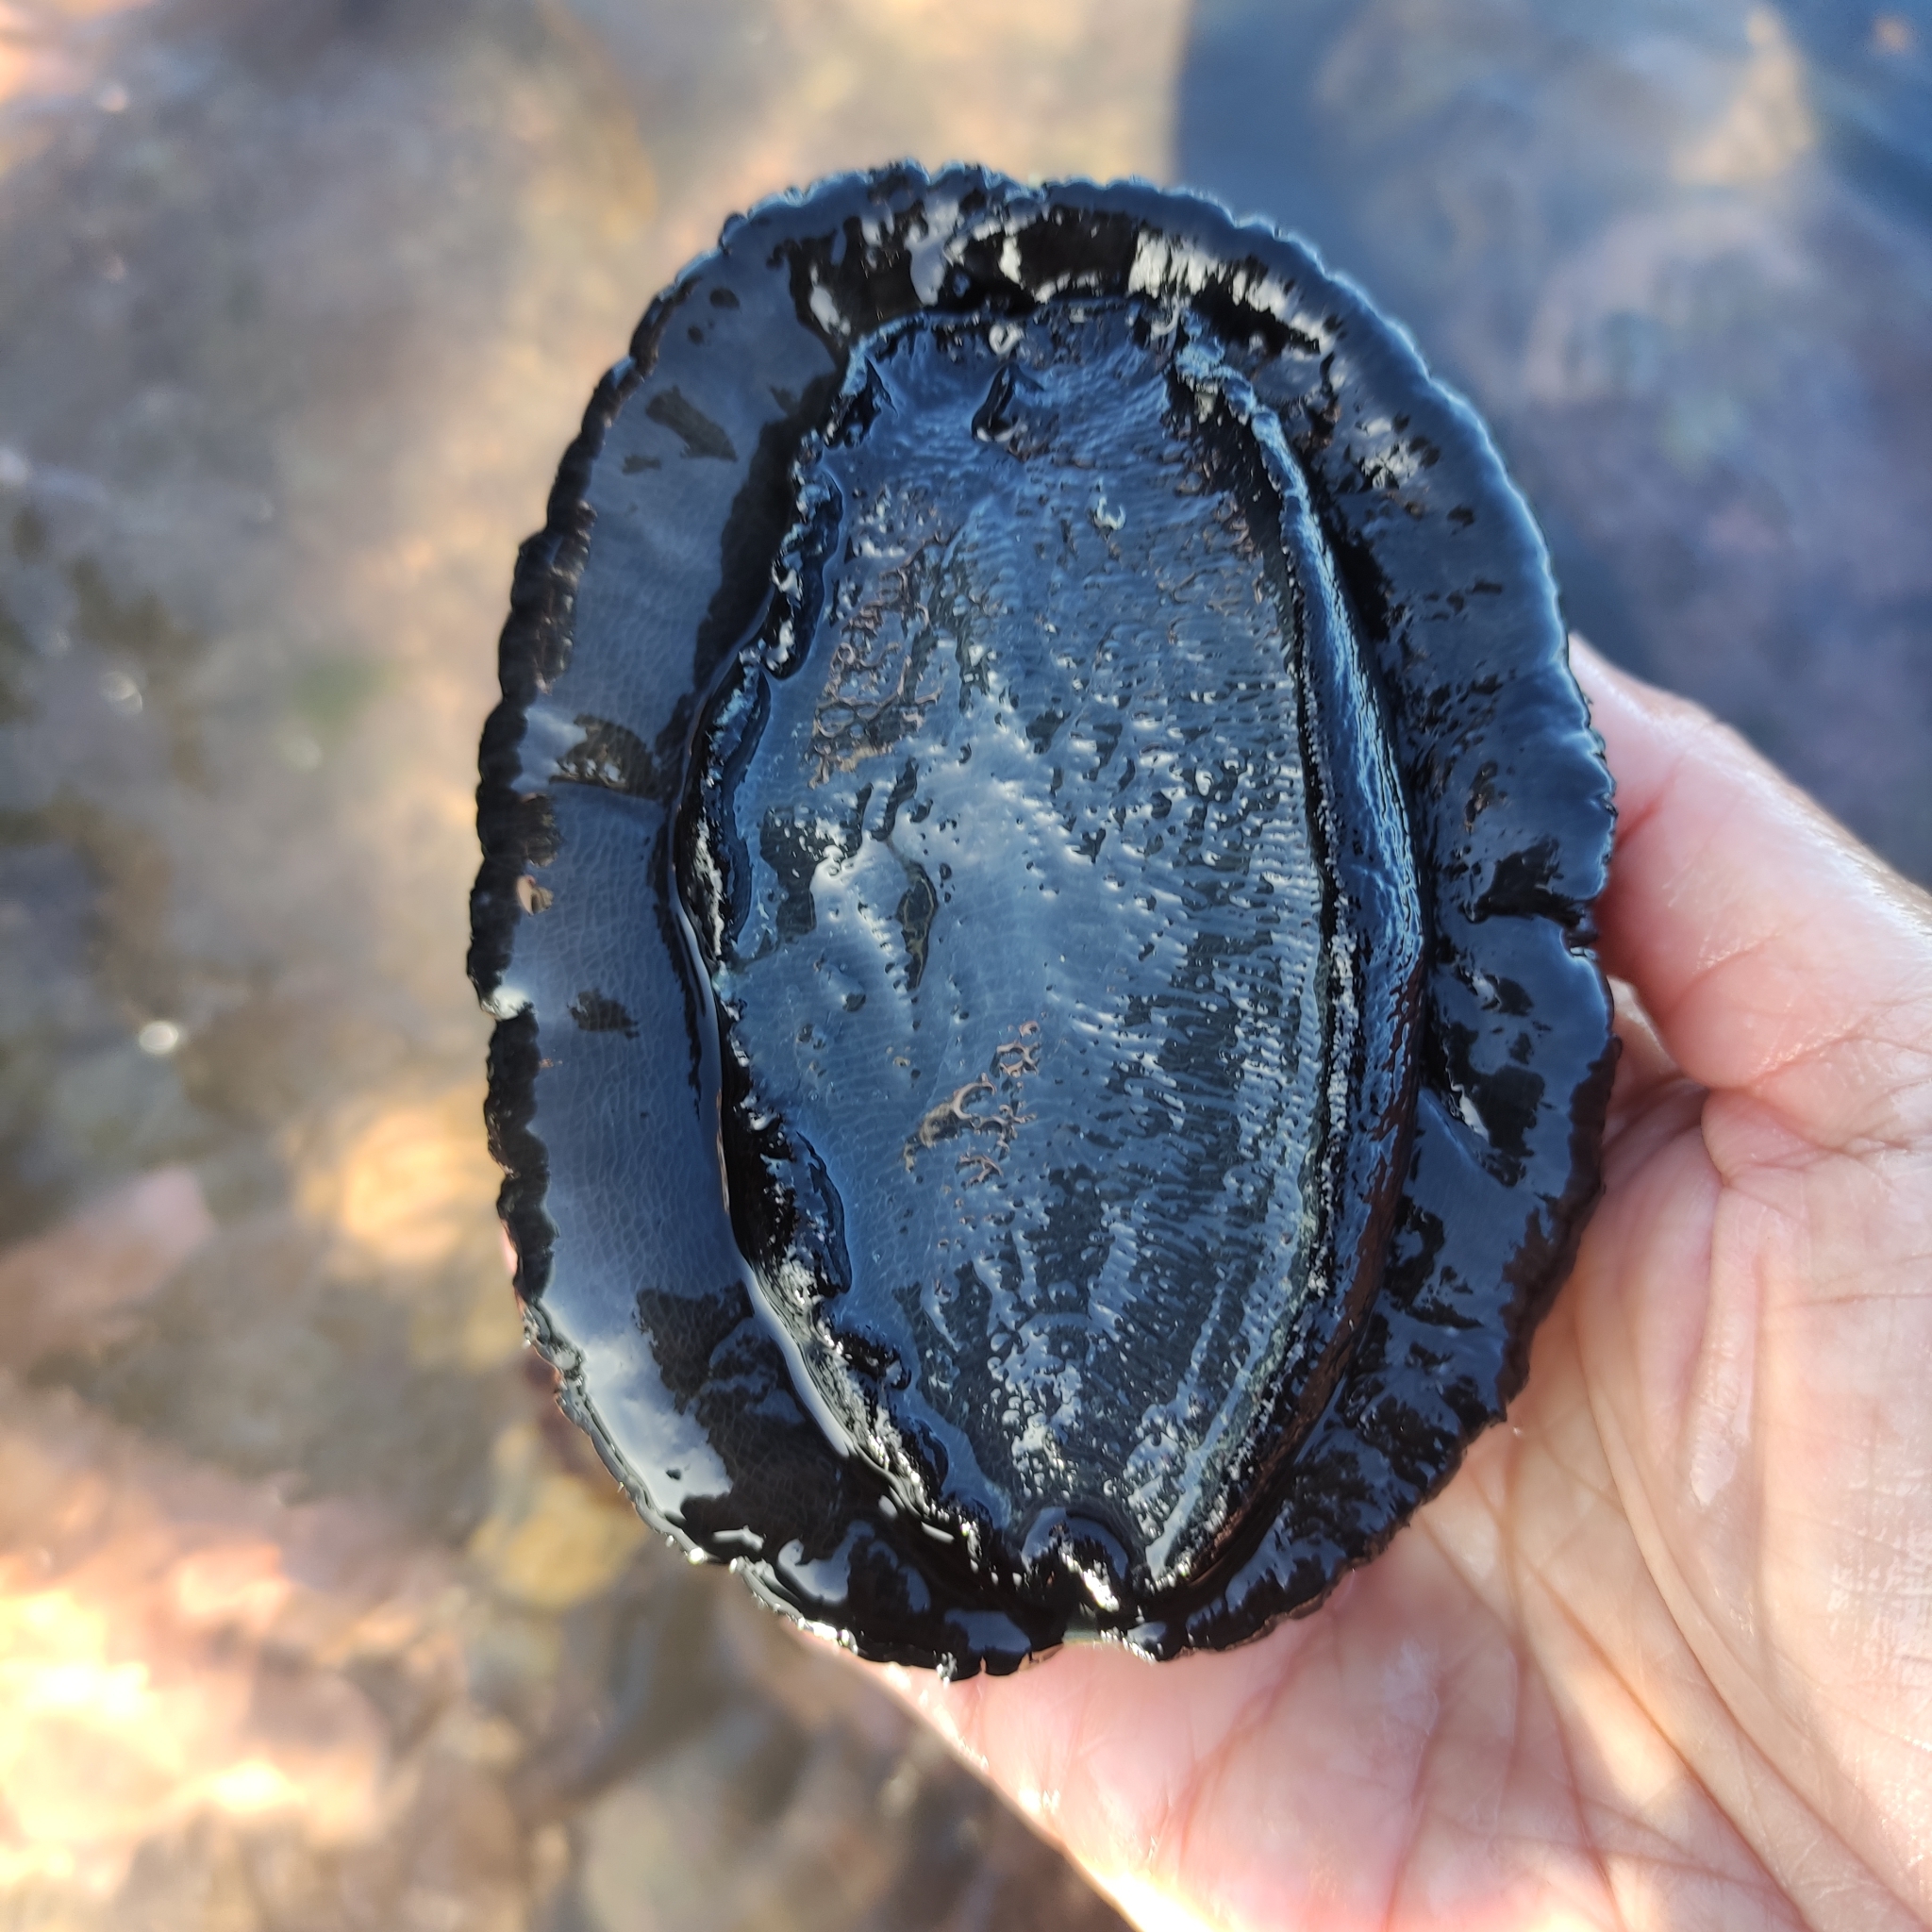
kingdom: Animalia
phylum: Mollusca
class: Gastropoda
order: Lepetellida
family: Haliotidae
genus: Haliotis
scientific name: Haliotis iris
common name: Abalone
